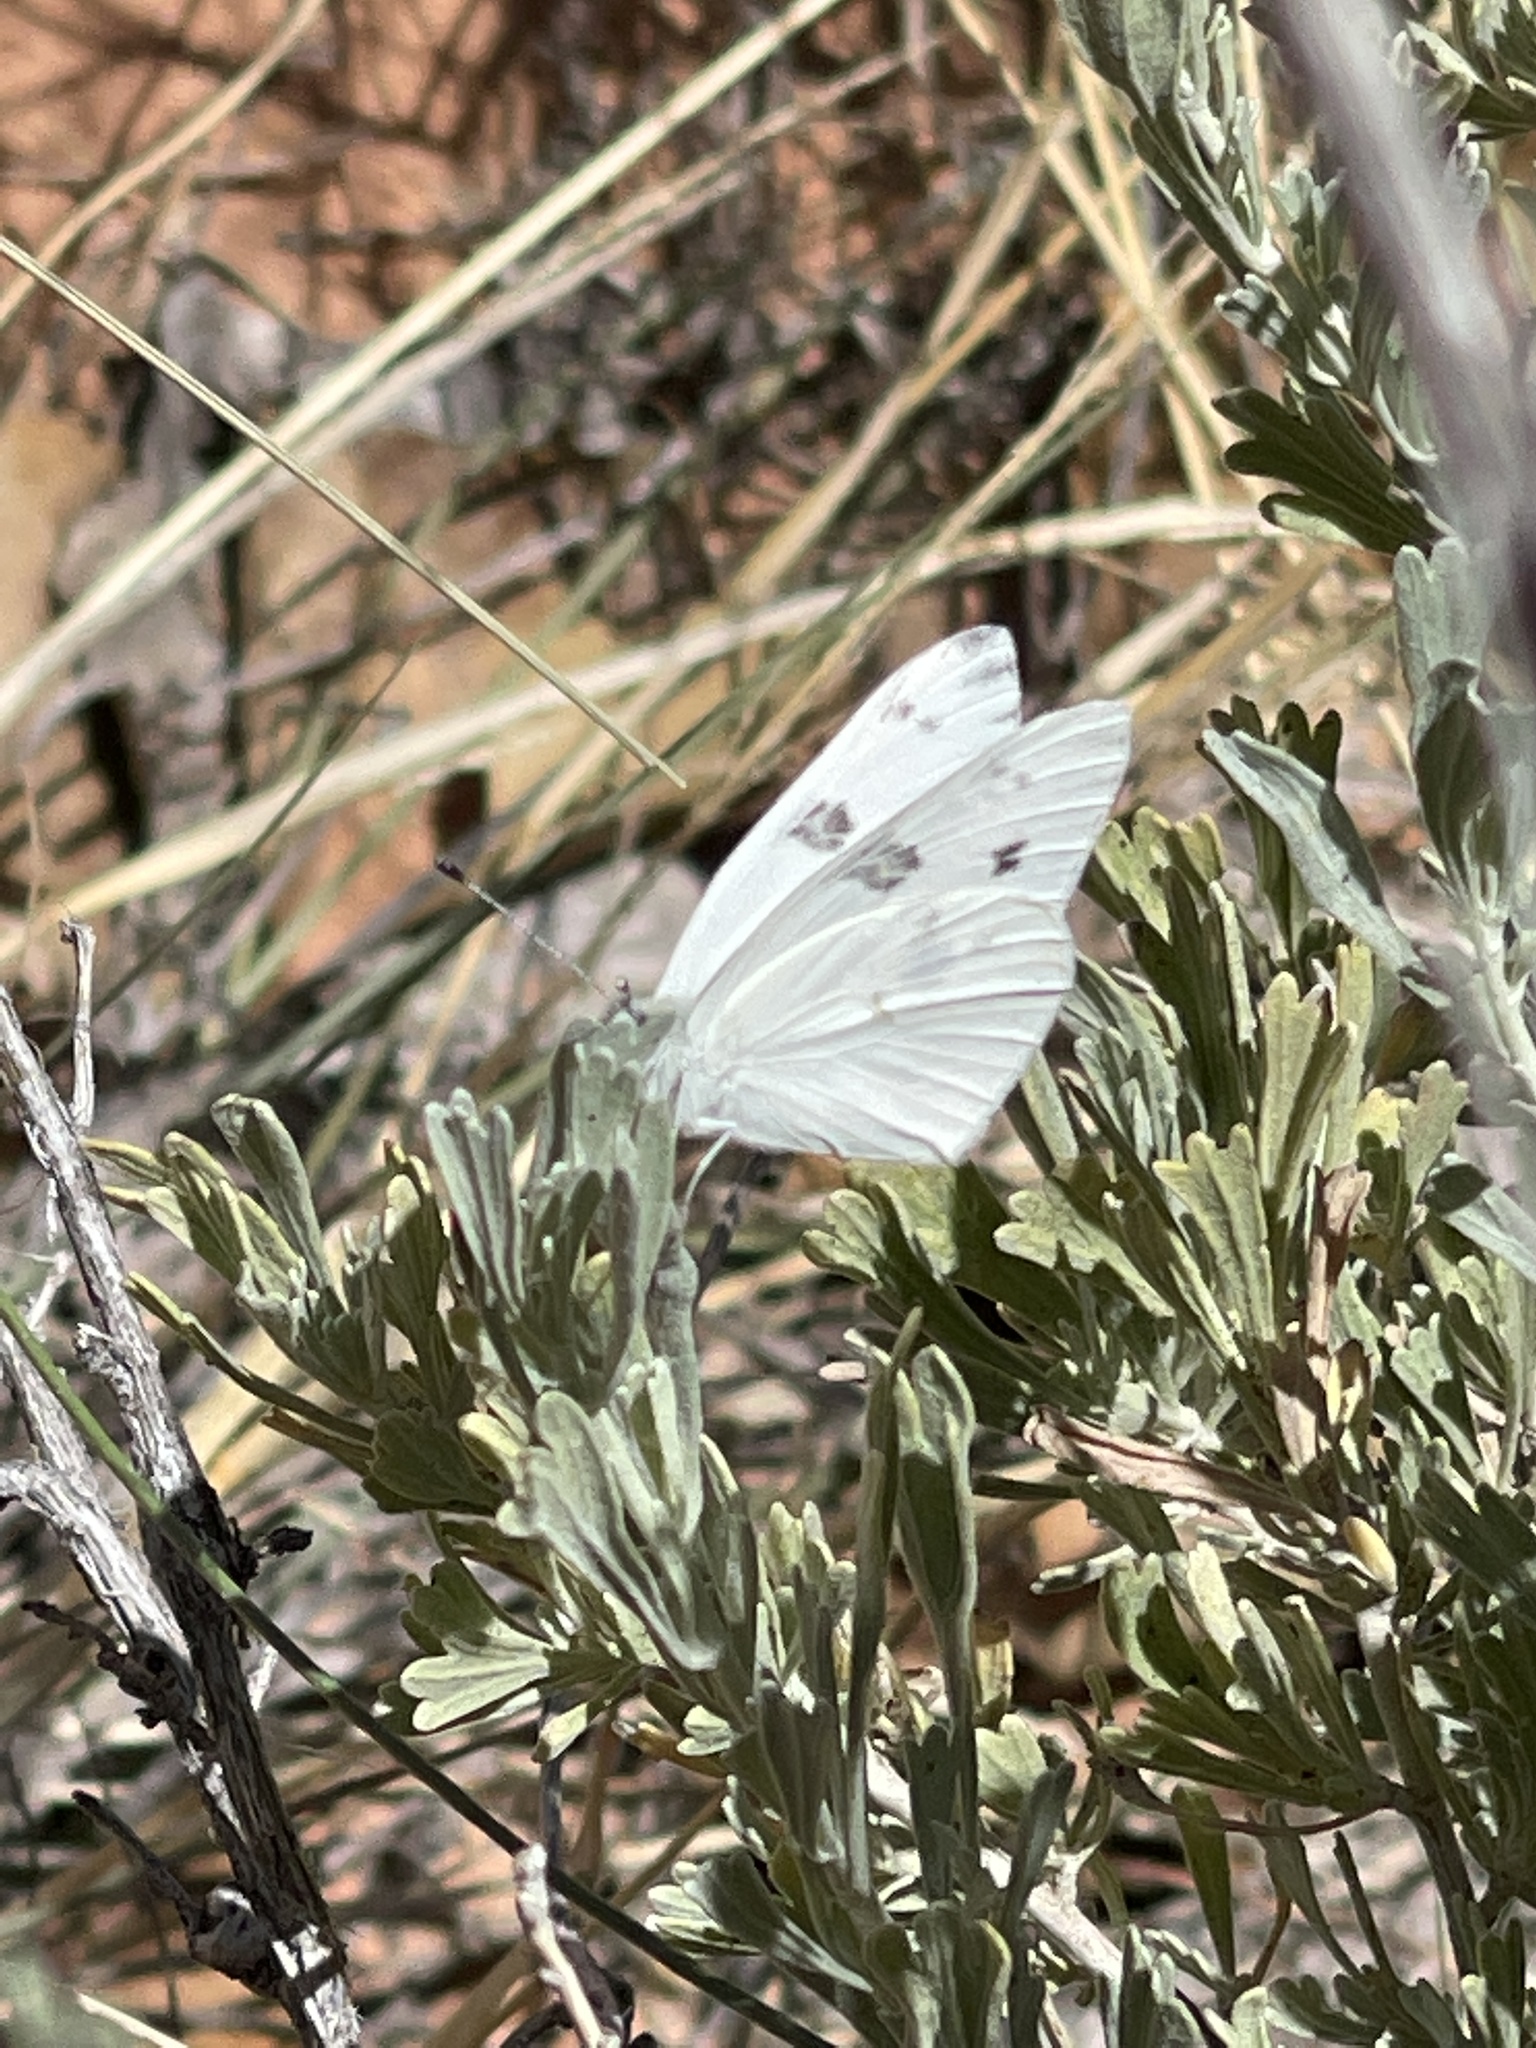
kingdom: Animalia
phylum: Arthropoda
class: Insecta
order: Lepidoptera
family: Pieridae
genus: Pontia
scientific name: Pontia protodice
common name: Checkered white
